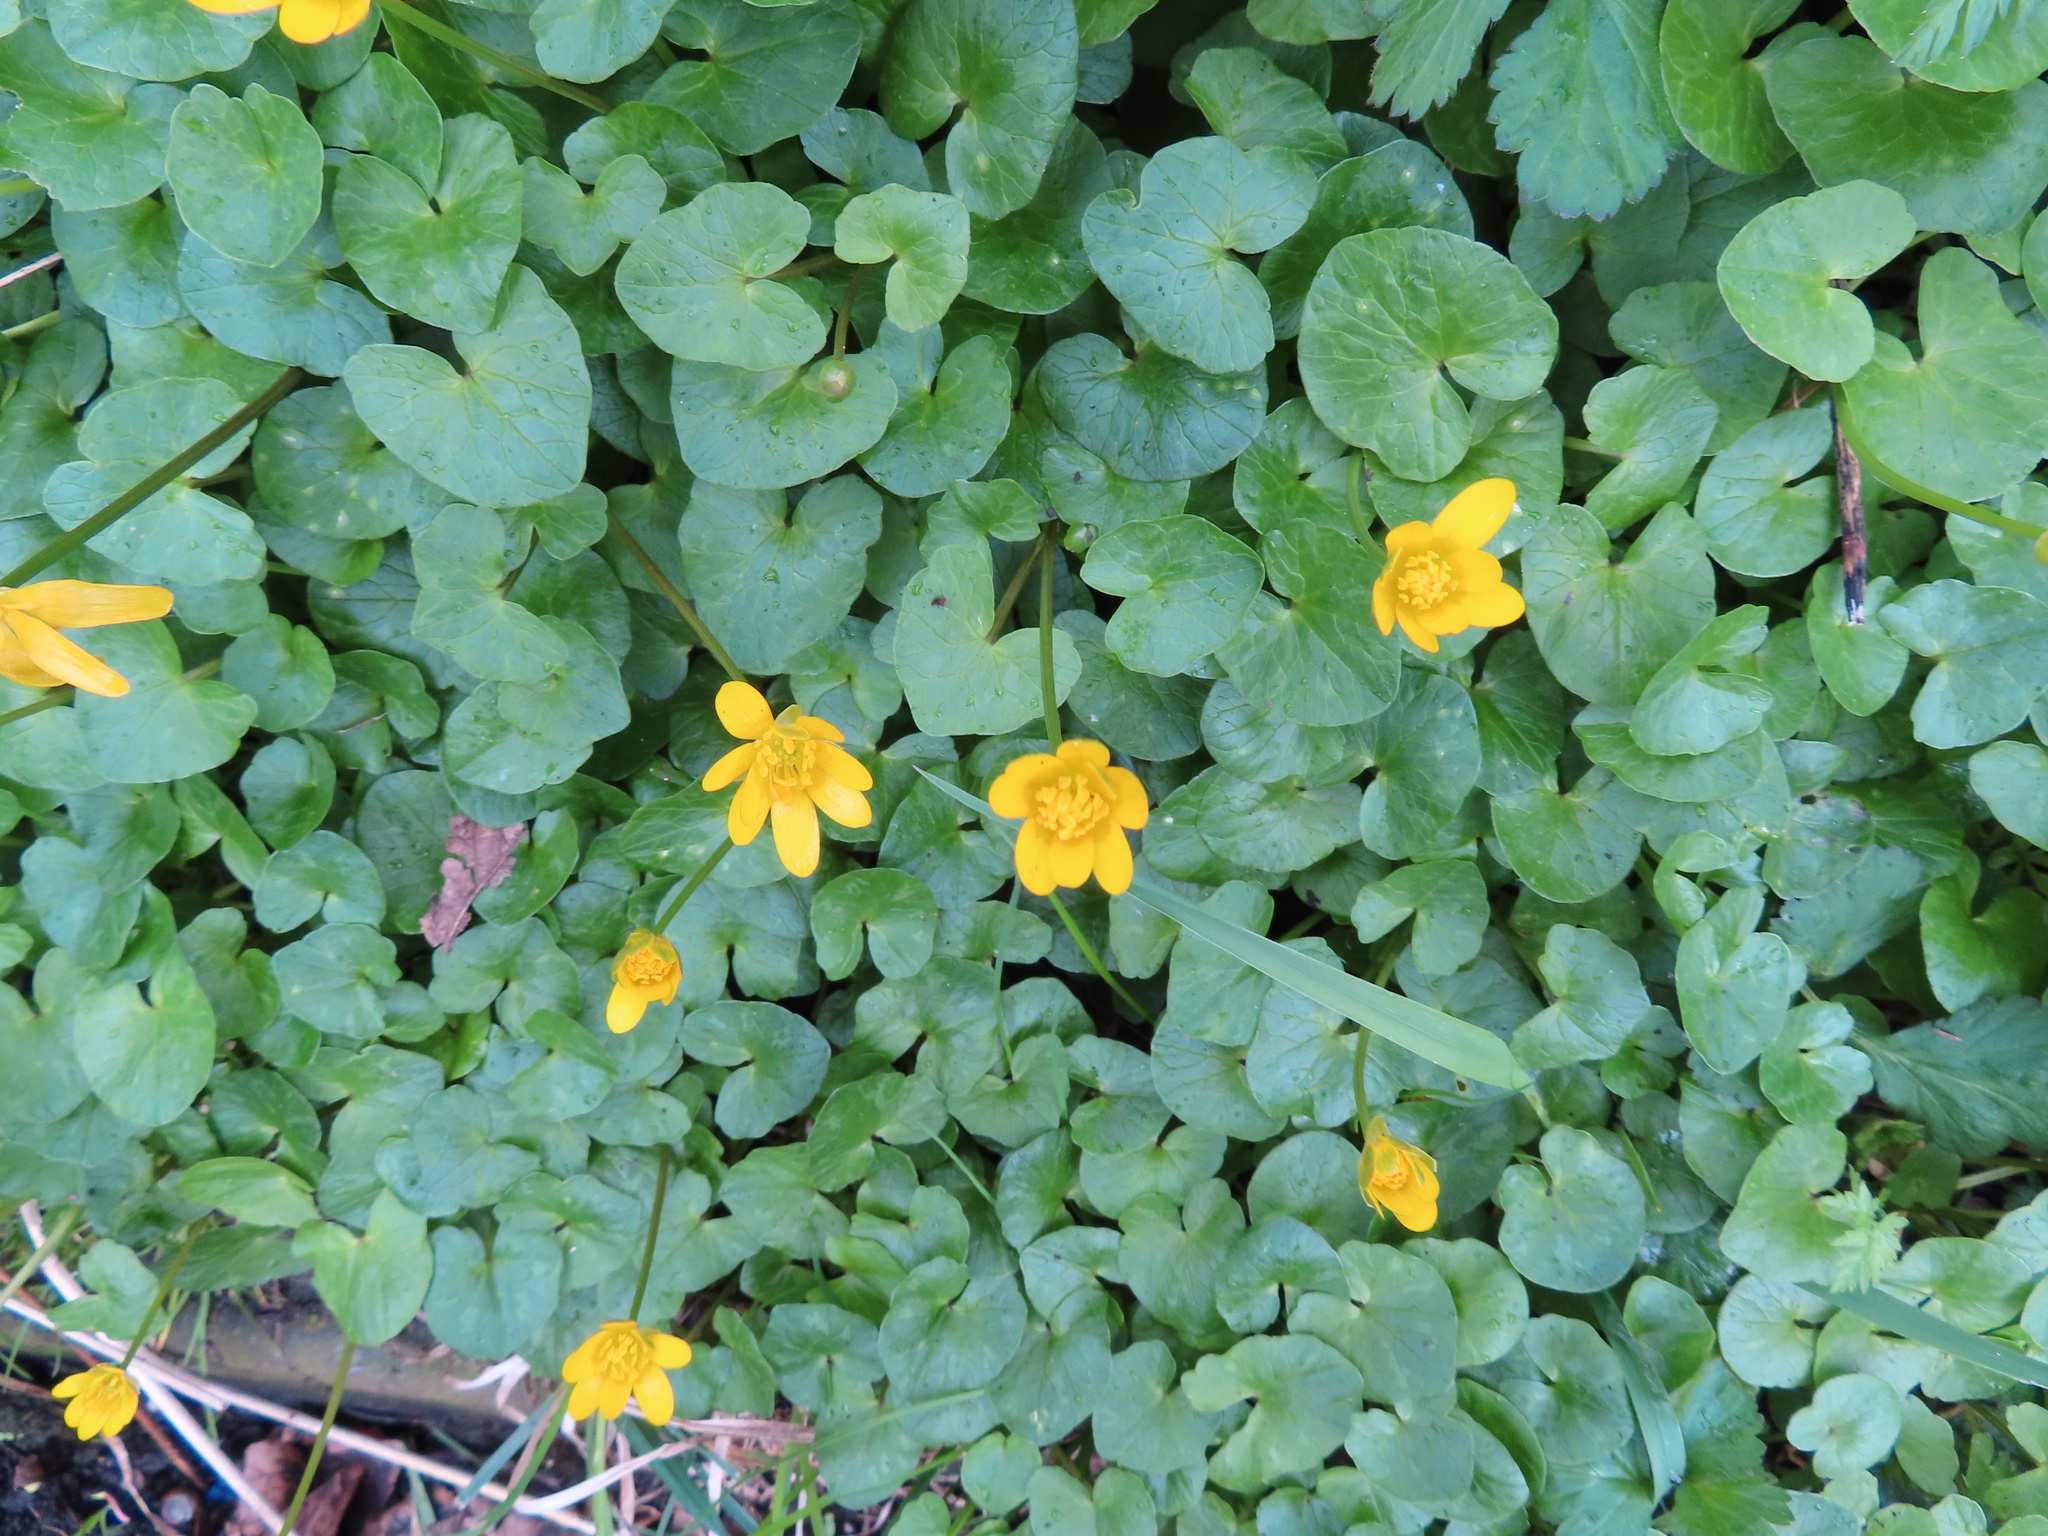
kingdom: Plantae
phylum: Tracheophyta
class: Magnoliopsida
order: Ranunculales
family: Ranunculaceae
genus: Ficaria
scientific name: Ficaria verna
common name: Lesser celandine
